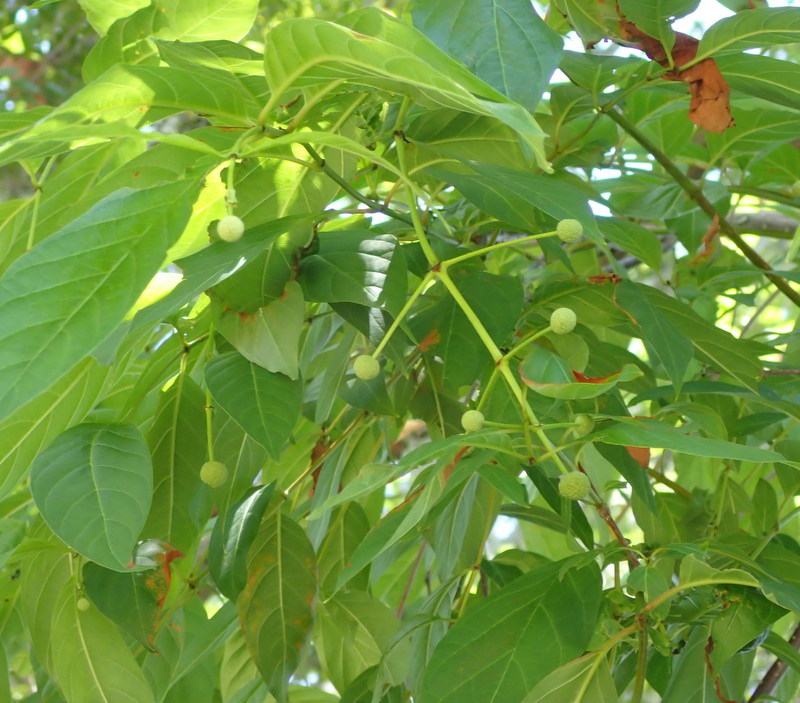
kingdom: Plantae
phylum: Tracheophyta
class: Magnoliopsida
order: Gentianales
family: Rubiaceae
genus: Cephalanthus
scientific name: Cephalanthus occidentalis
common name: Button-willow
